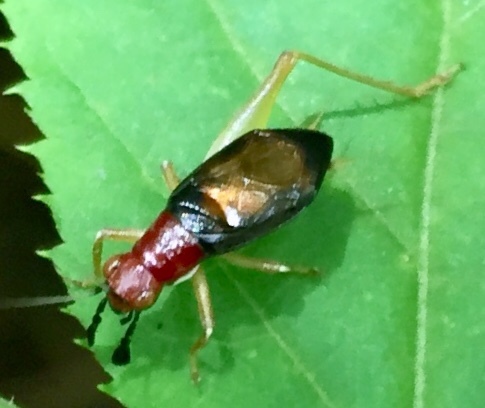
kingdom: Animalia
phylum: Arthropoda
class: Insecta
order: Orthoptera
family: Trigonidiidae
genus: Phyllopalpus
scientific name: Phyllopalpus pulchellus
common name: Handsome trig
